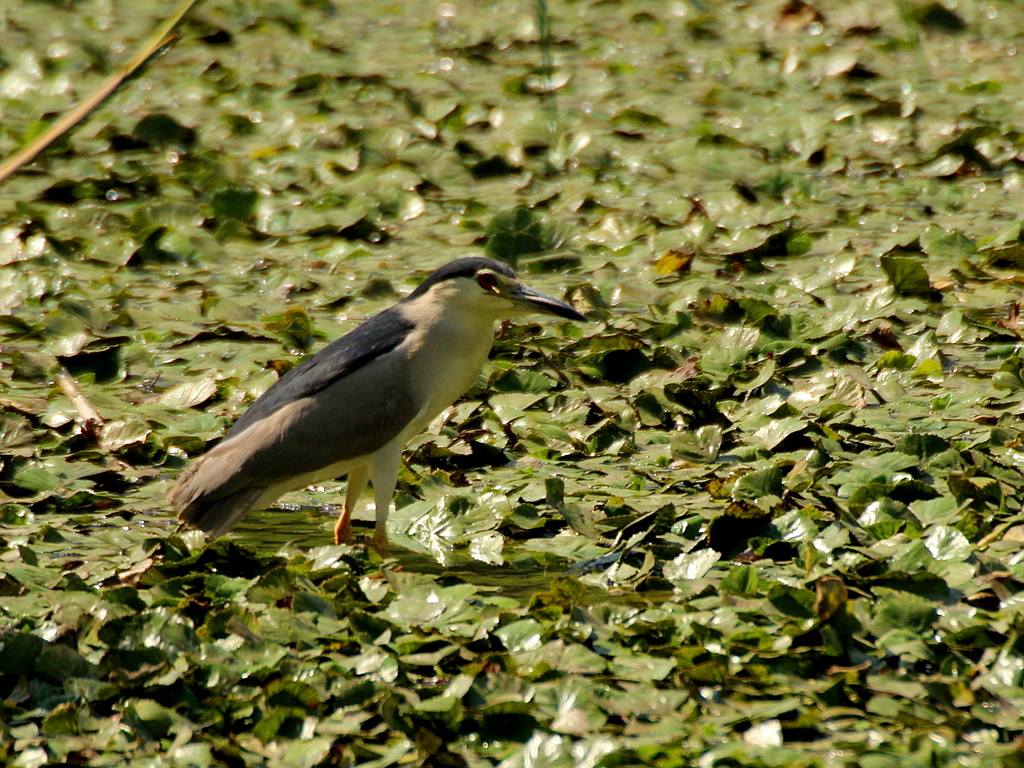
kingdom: Animalia
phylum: Chordata
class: Aves
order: Pelecaniformes
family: Ardeidae
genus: Nycticorax
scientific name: Nycticorax nycticorax
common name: Black-crowned night heron
